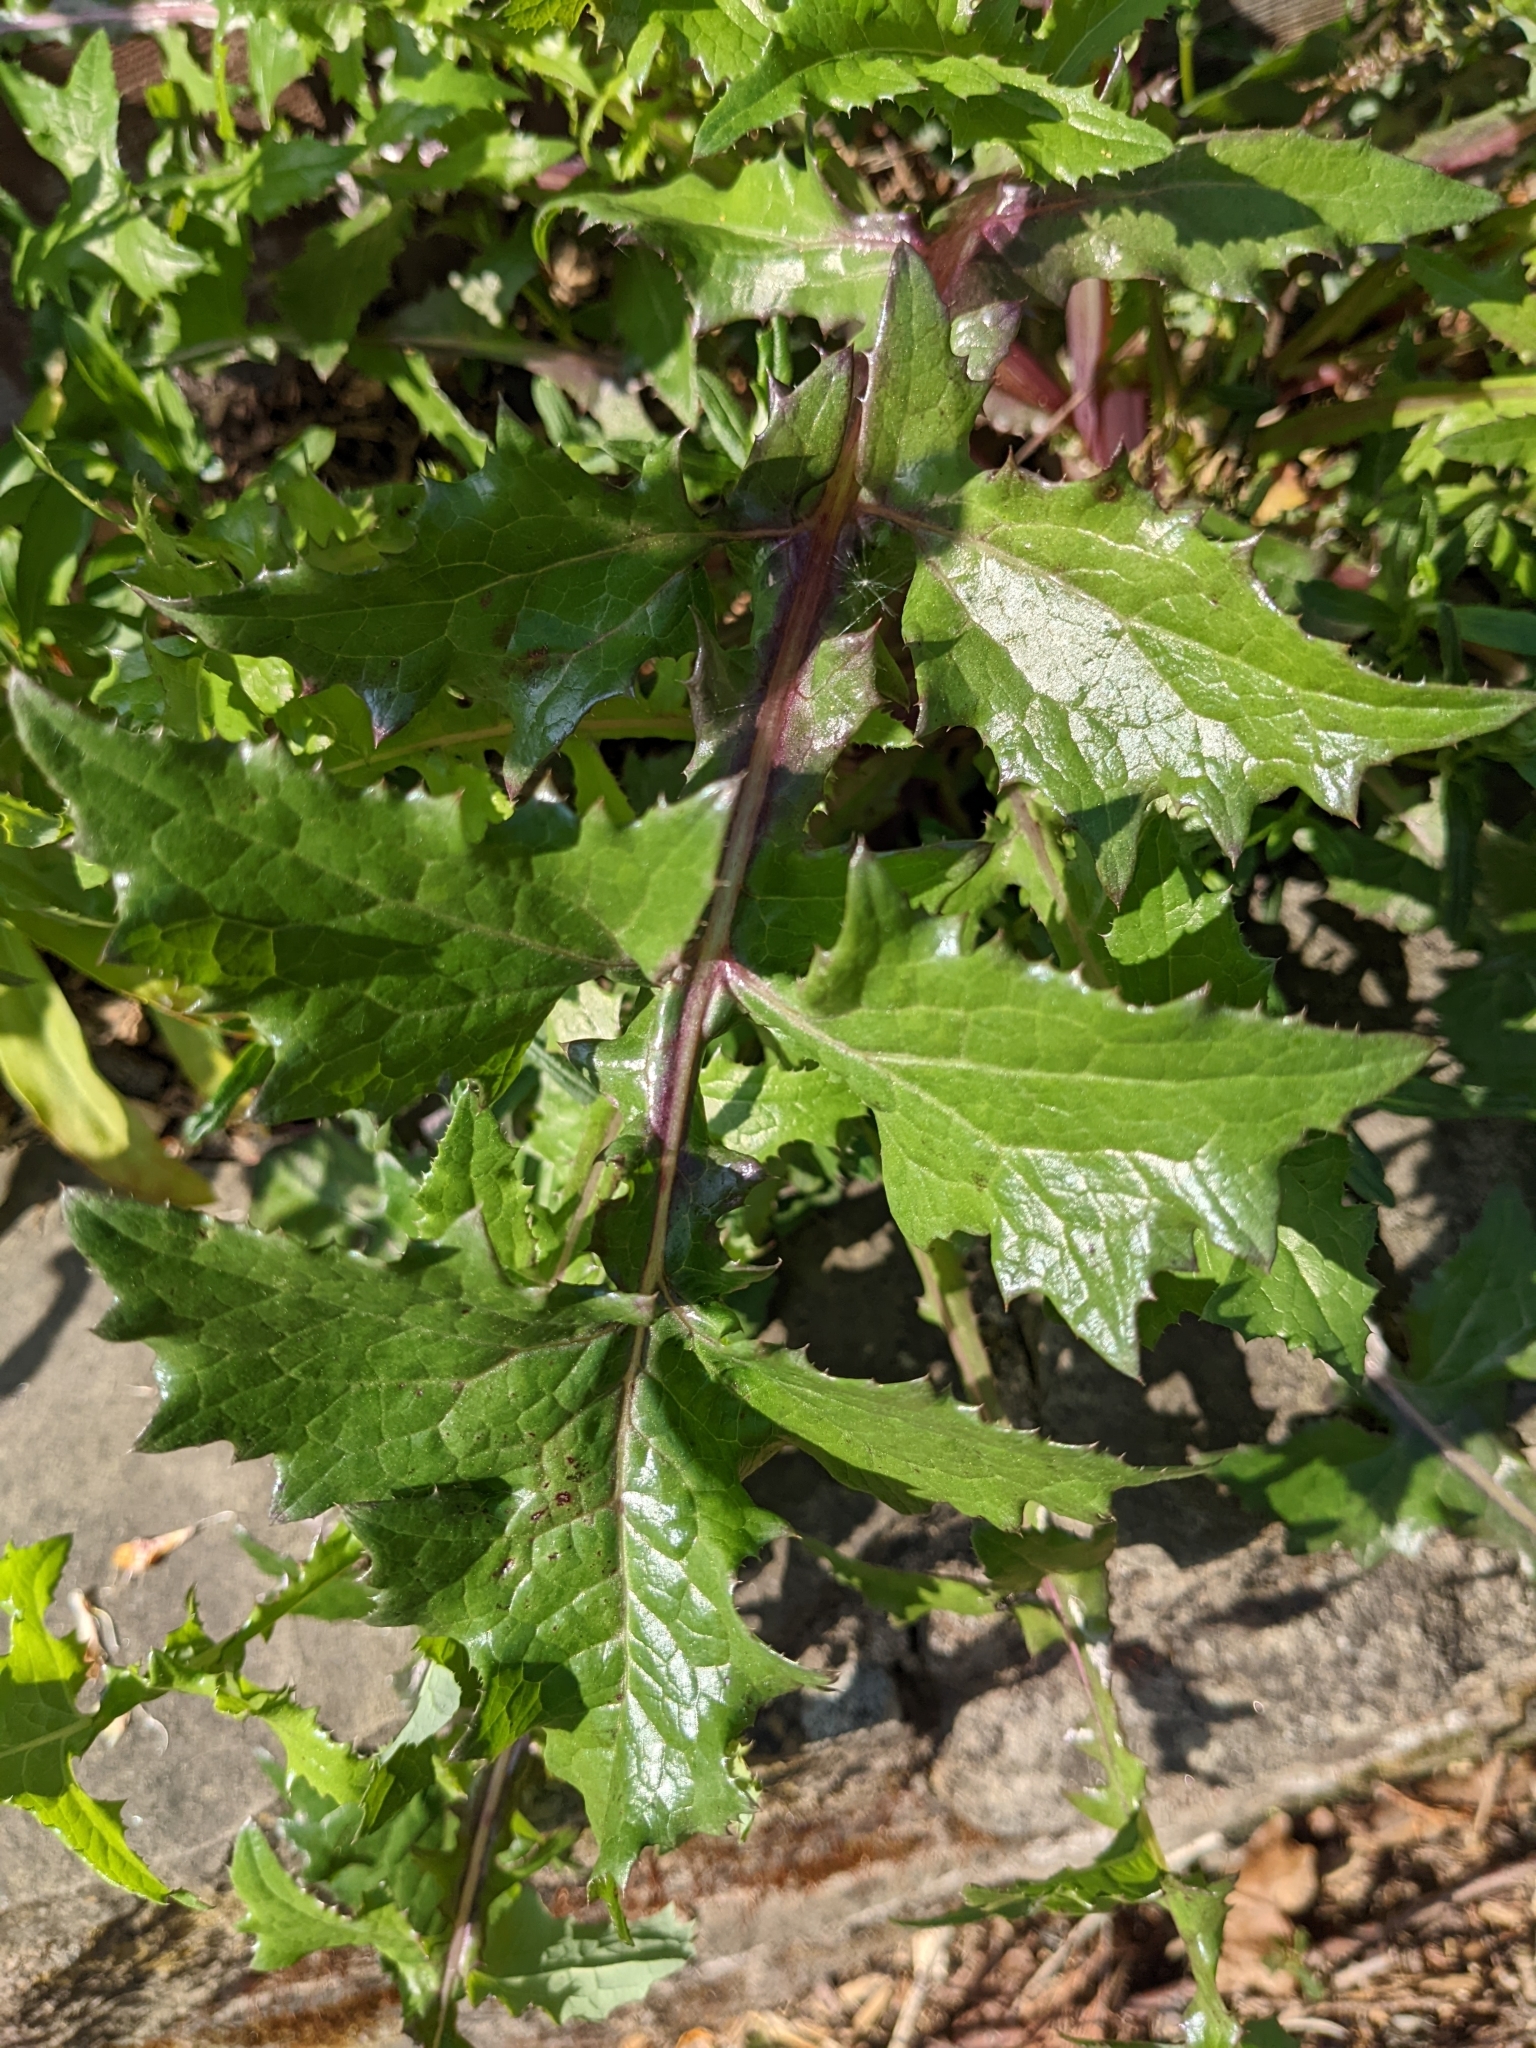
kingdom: Plantae
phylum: Tracheophyta
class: Magnoliopsida
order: Asterales
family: Asteraceae
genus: Sonchus
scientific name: Sonchus oleraceus
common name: Common sowthistle
